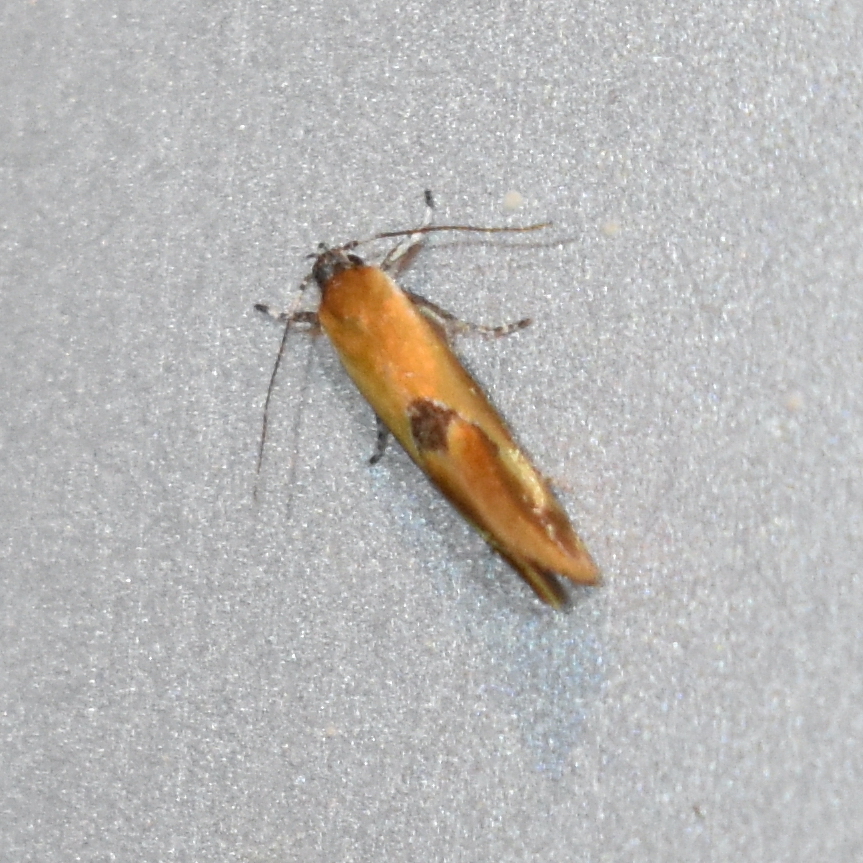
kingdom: Animalia
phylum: Arthropoda
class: Insecta
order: Lepidoptera
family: Oecophoridae
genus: Batia
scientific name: Batia lunaris
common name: Moth
